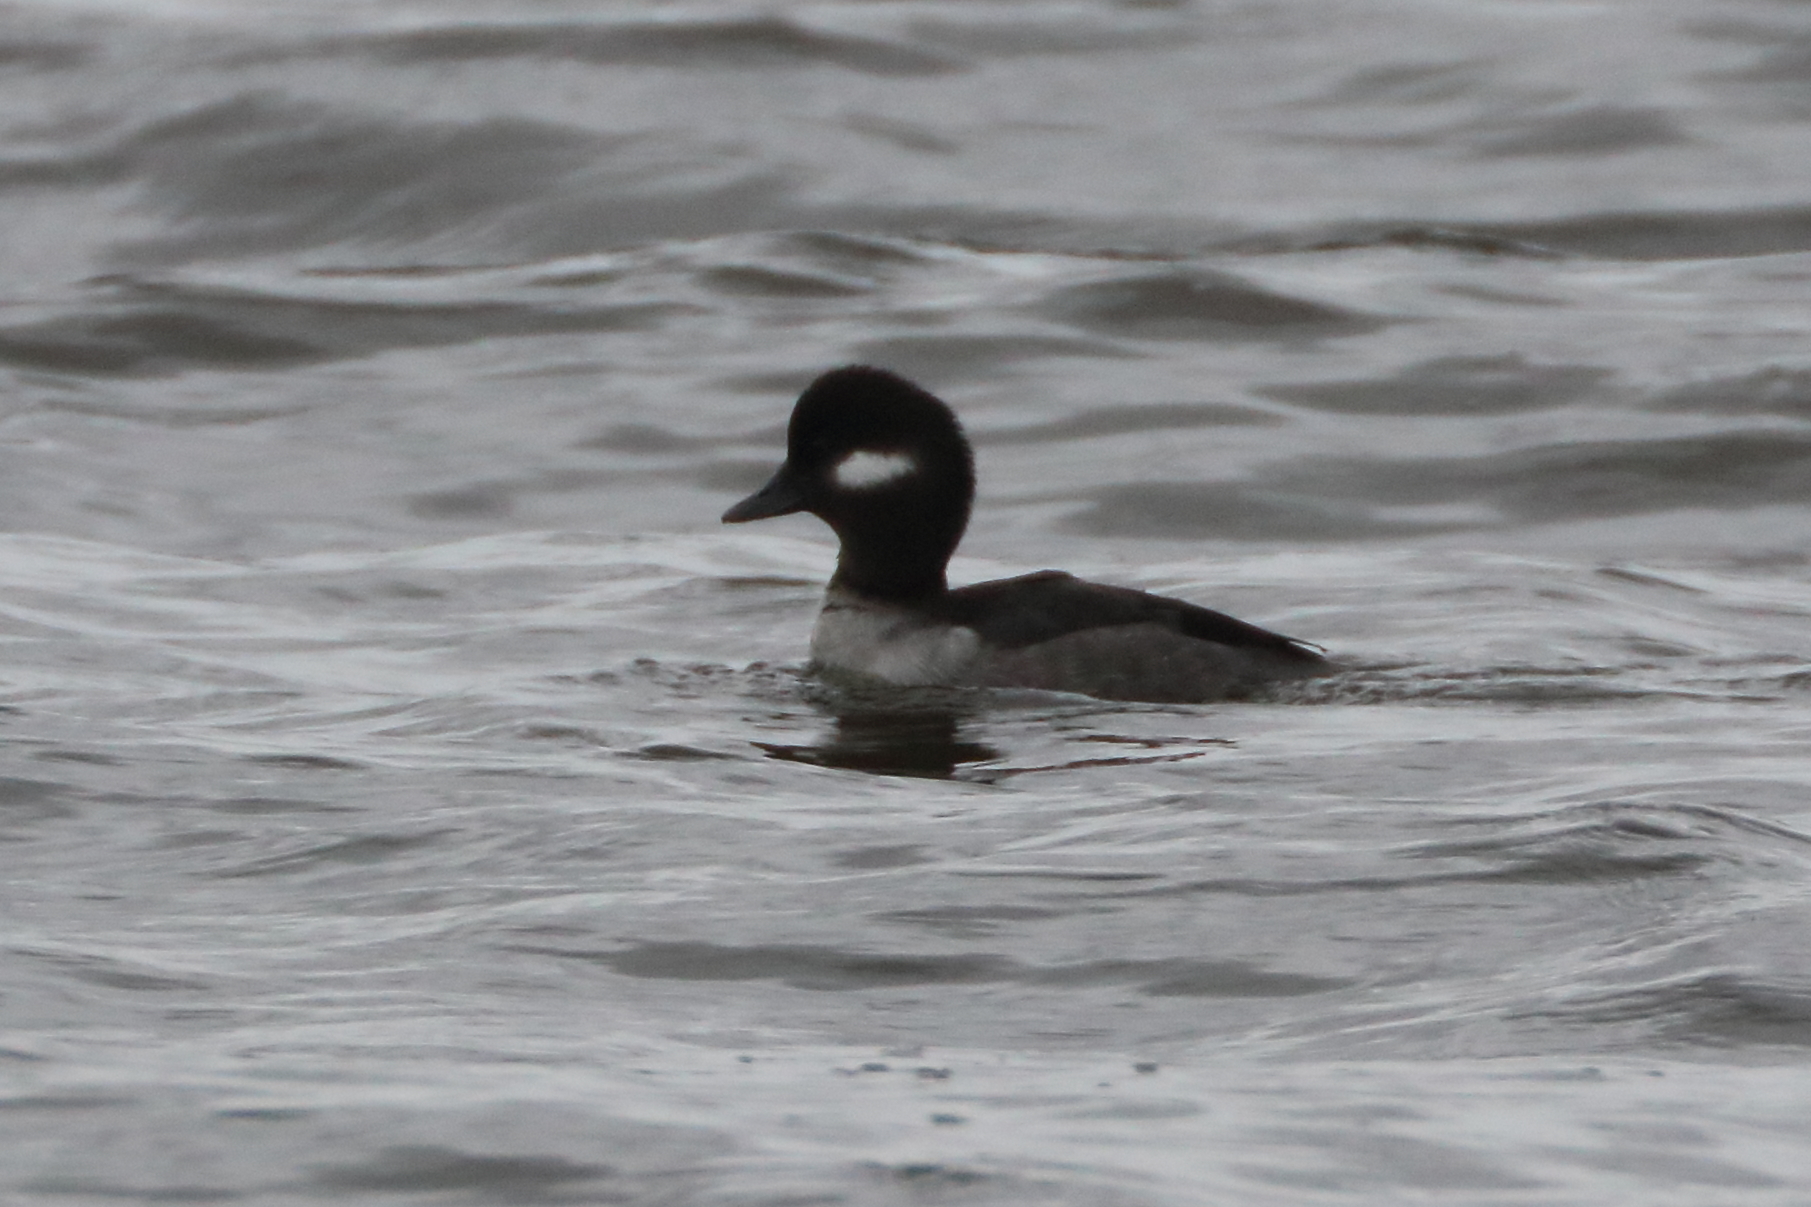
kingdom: Animalia
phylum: Chordata
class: Aves
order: Anseriformes
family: Anatidae
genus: Bucephala
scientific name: Bucephala albeola
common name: Bufflehead
